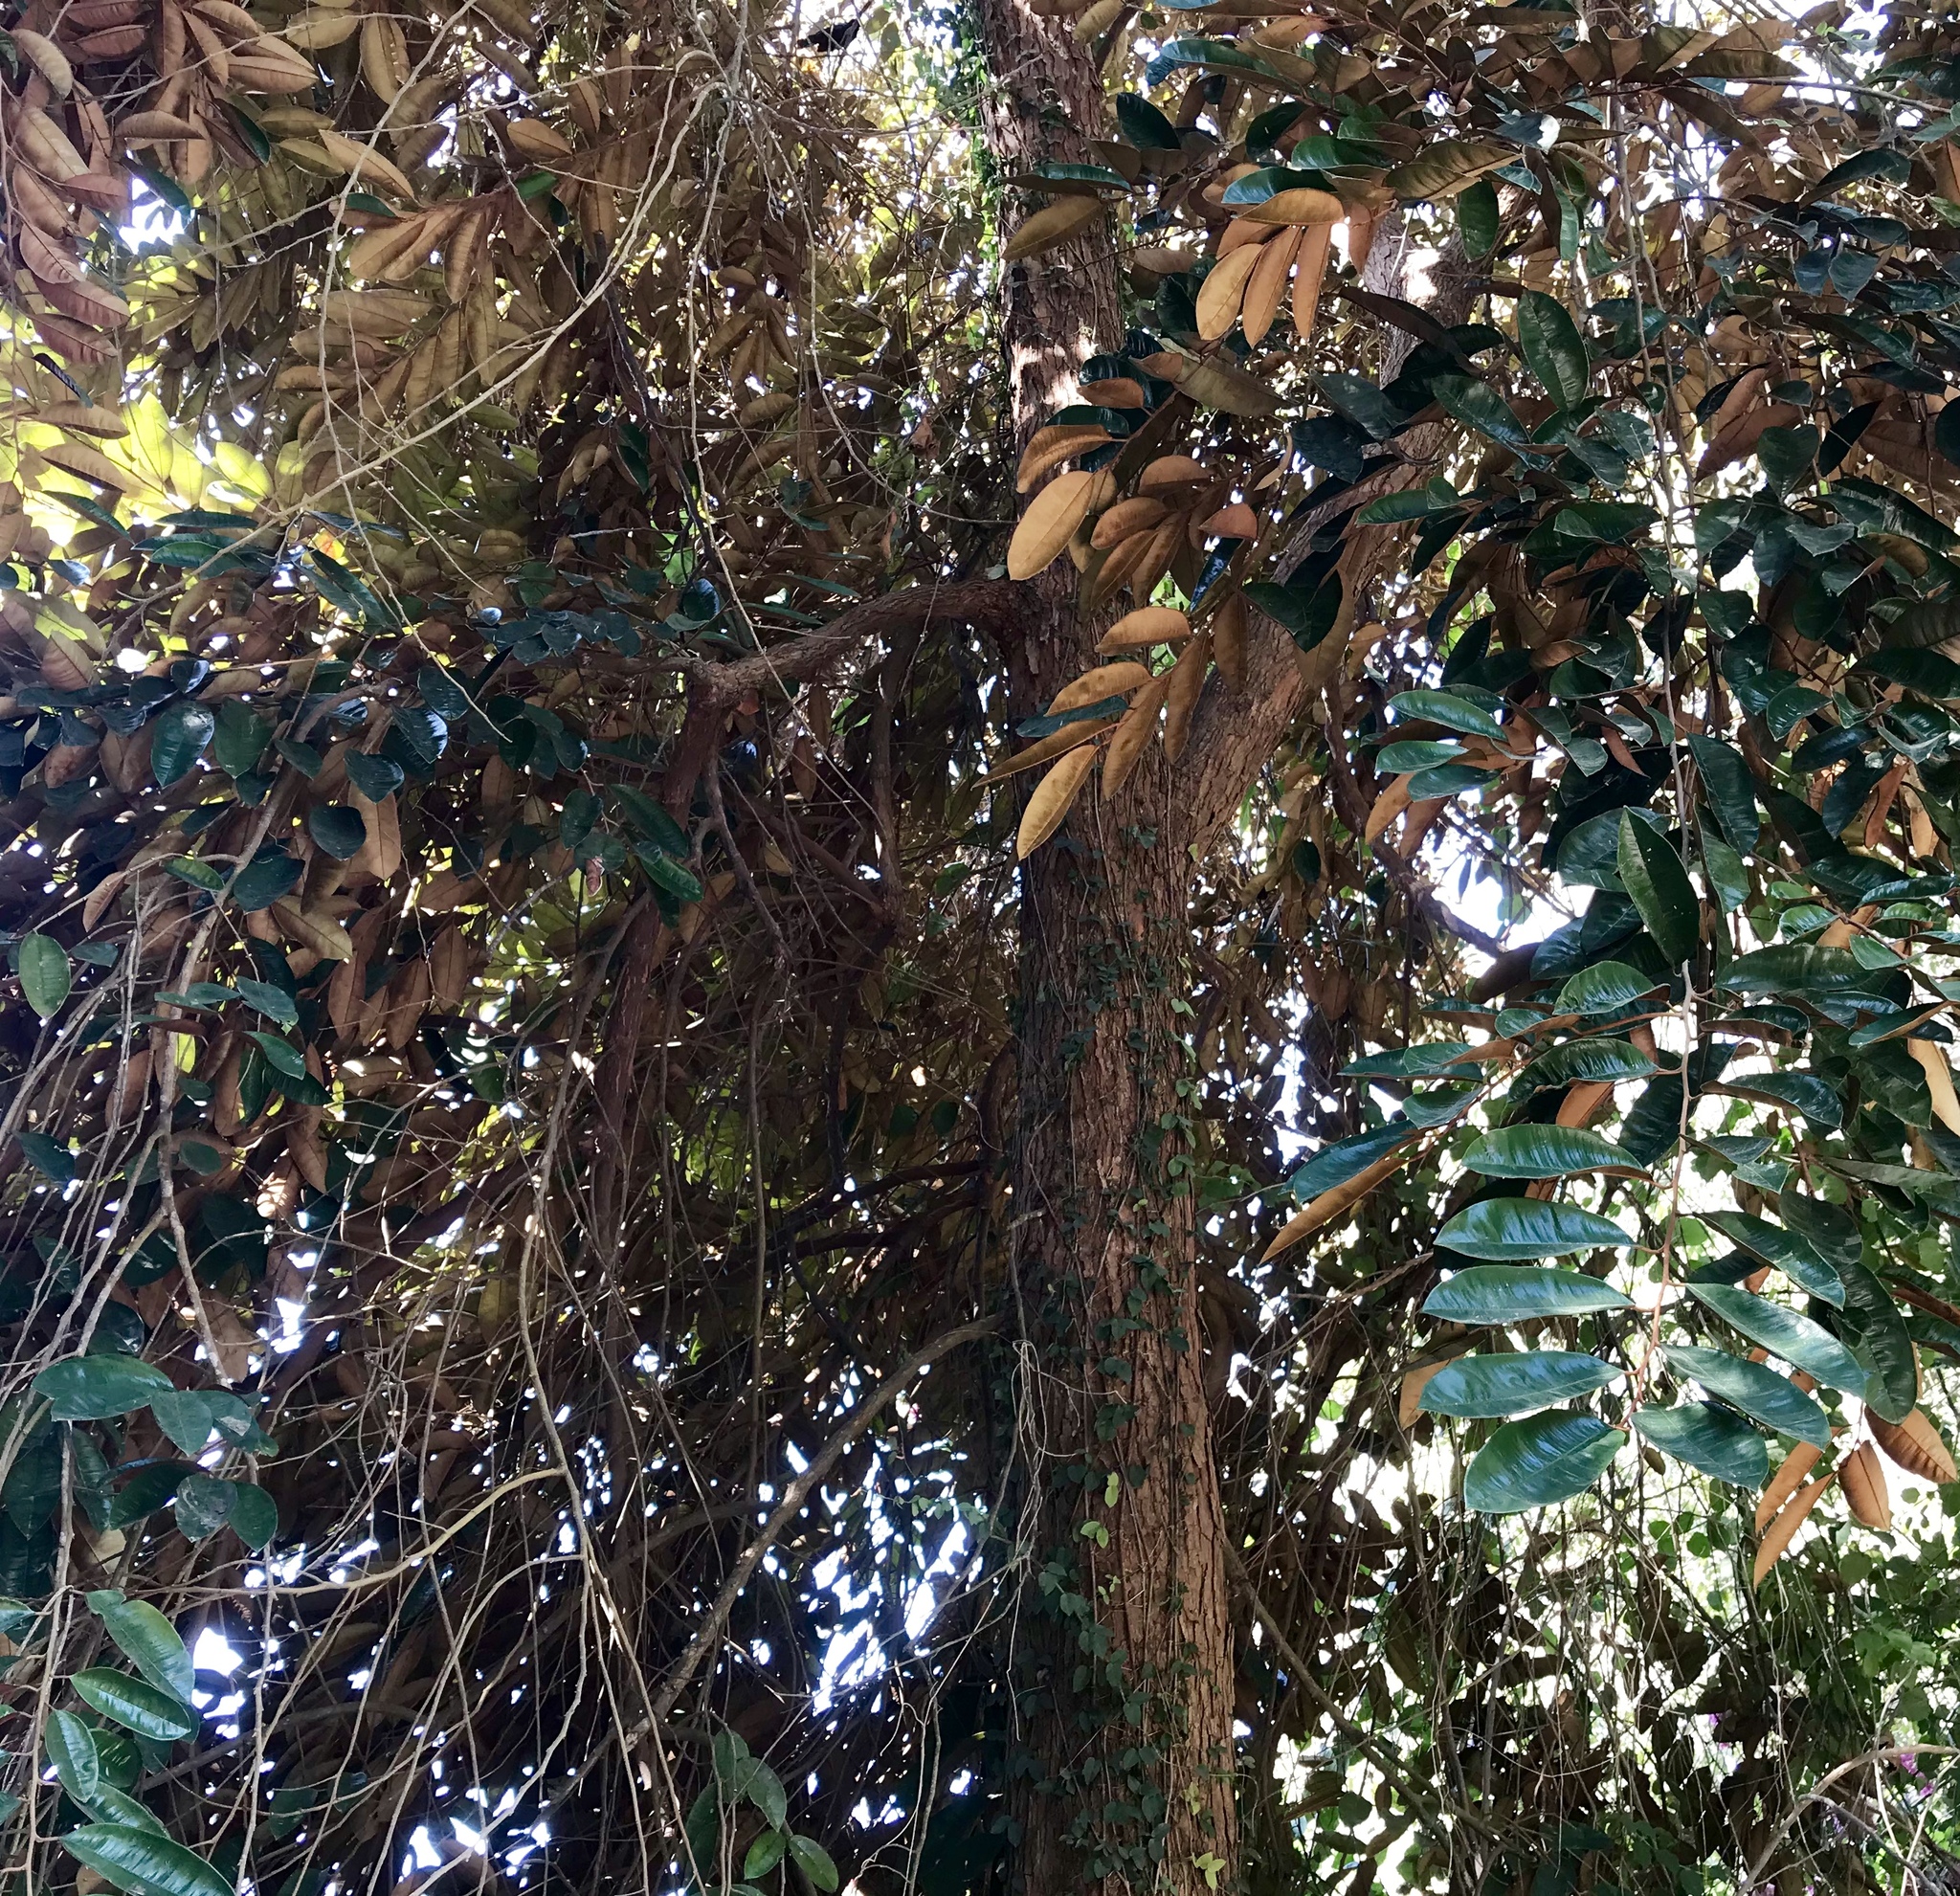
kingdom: Plantae
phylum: Tracheophyta
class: Magnoliopsida
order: Ericales
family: Sapotaceae
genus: Chrysophyllum
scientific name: Chrysophyllum cainito
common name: Star-apple
